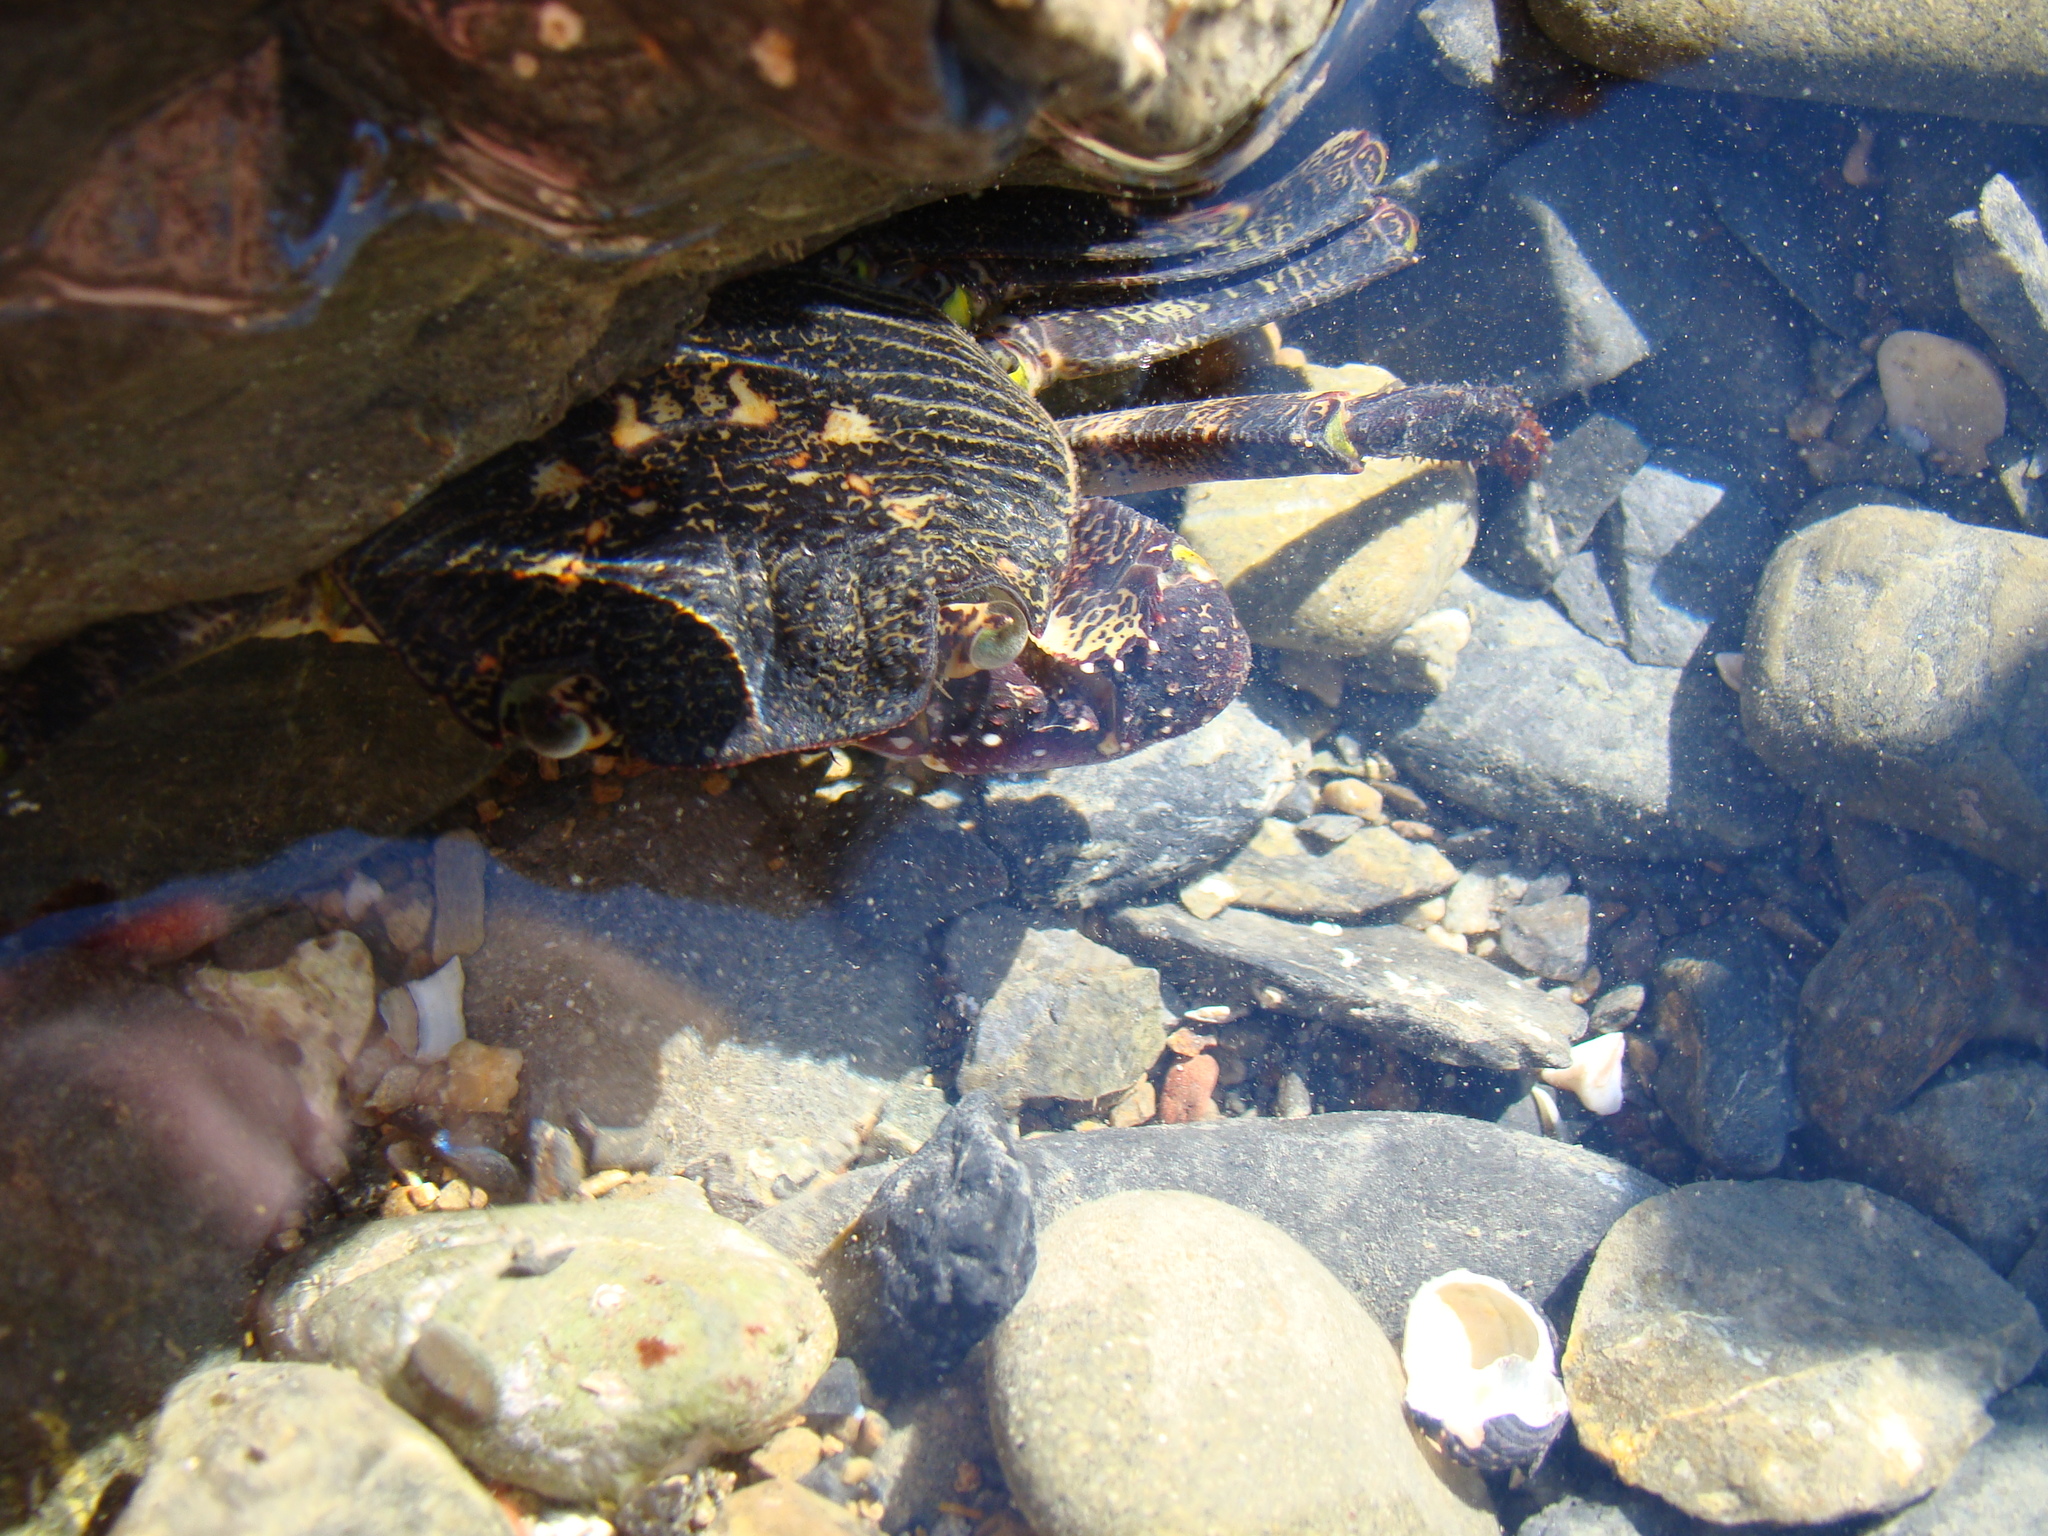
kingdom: Animalia
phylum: Arthropoda
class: Malacostraca
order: Decapoda
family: Grapsidae
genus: Leptograpsus
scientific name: Leptograpsus variegatus
